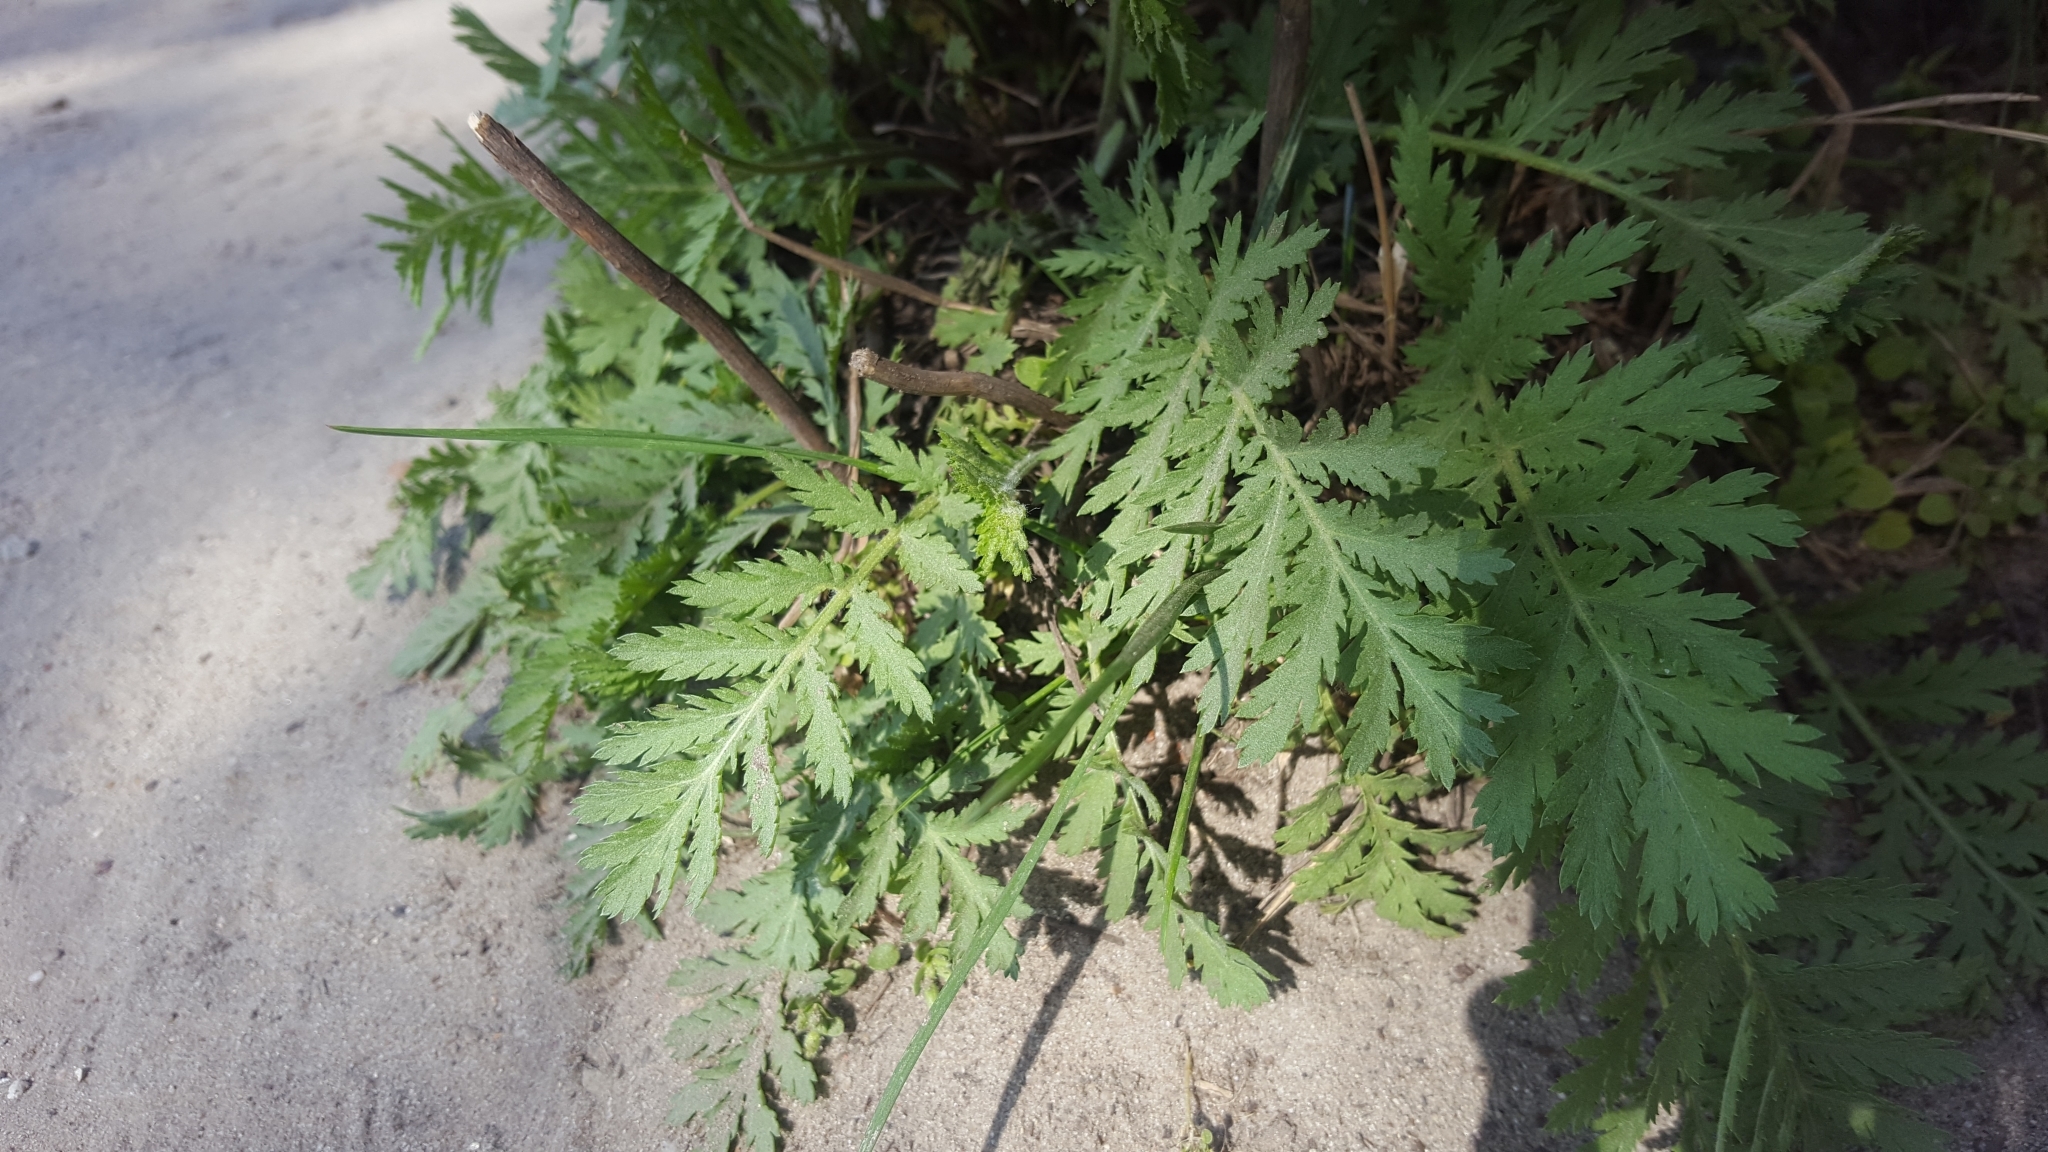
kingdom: Plantae
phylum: Tracheophyta
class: Magnoliopsida
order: Asterales
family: Asteraceae
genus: Tanacetum
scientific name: Tanacetum vulgare
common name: Common tansy
